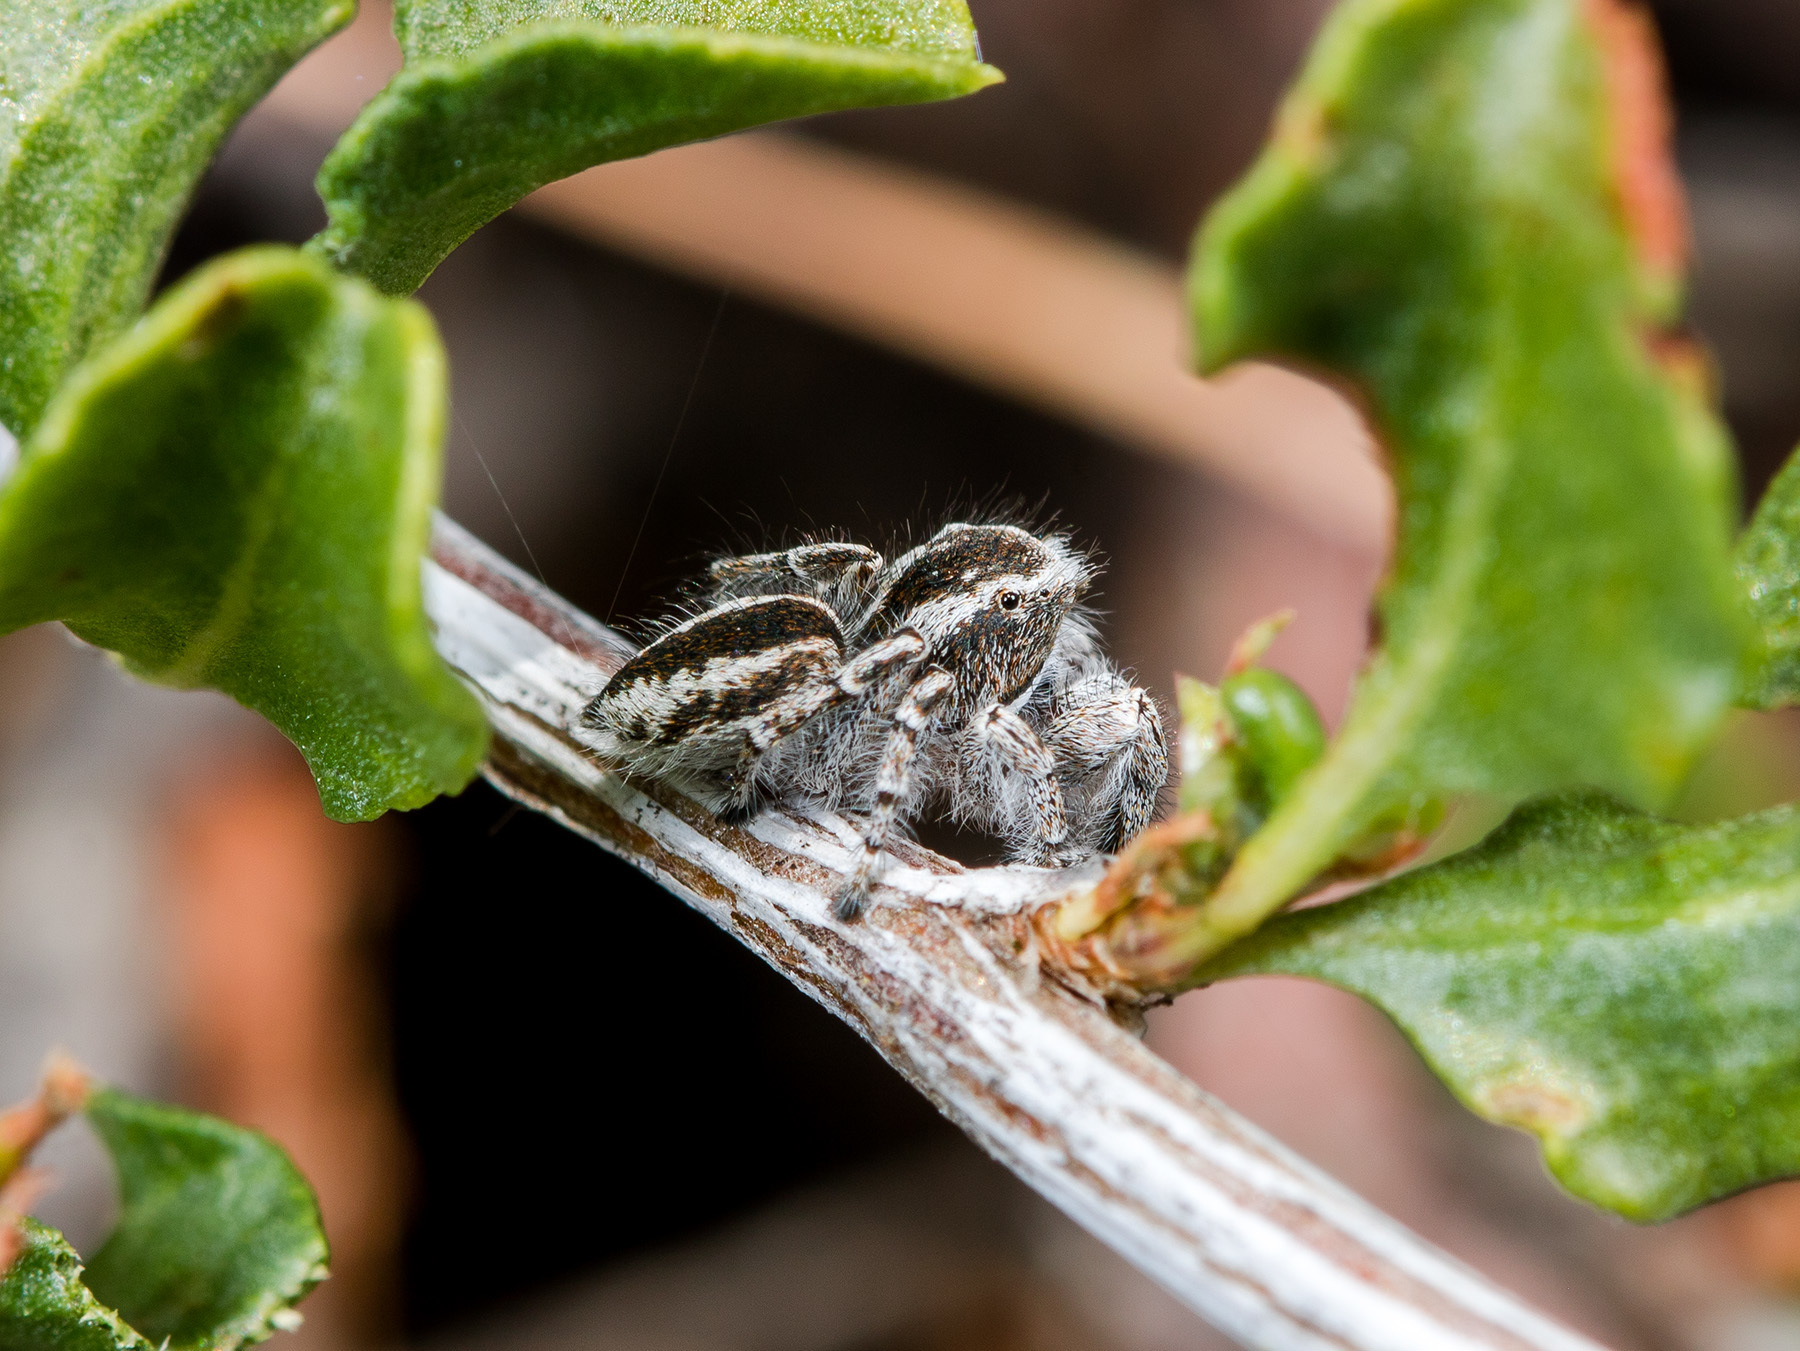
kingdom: Animalia
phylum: Arthropoda
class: Arachnida
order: Araneae
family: Salticidae
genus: Pseudomogrus
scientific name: Pseudomogrus vittatus
